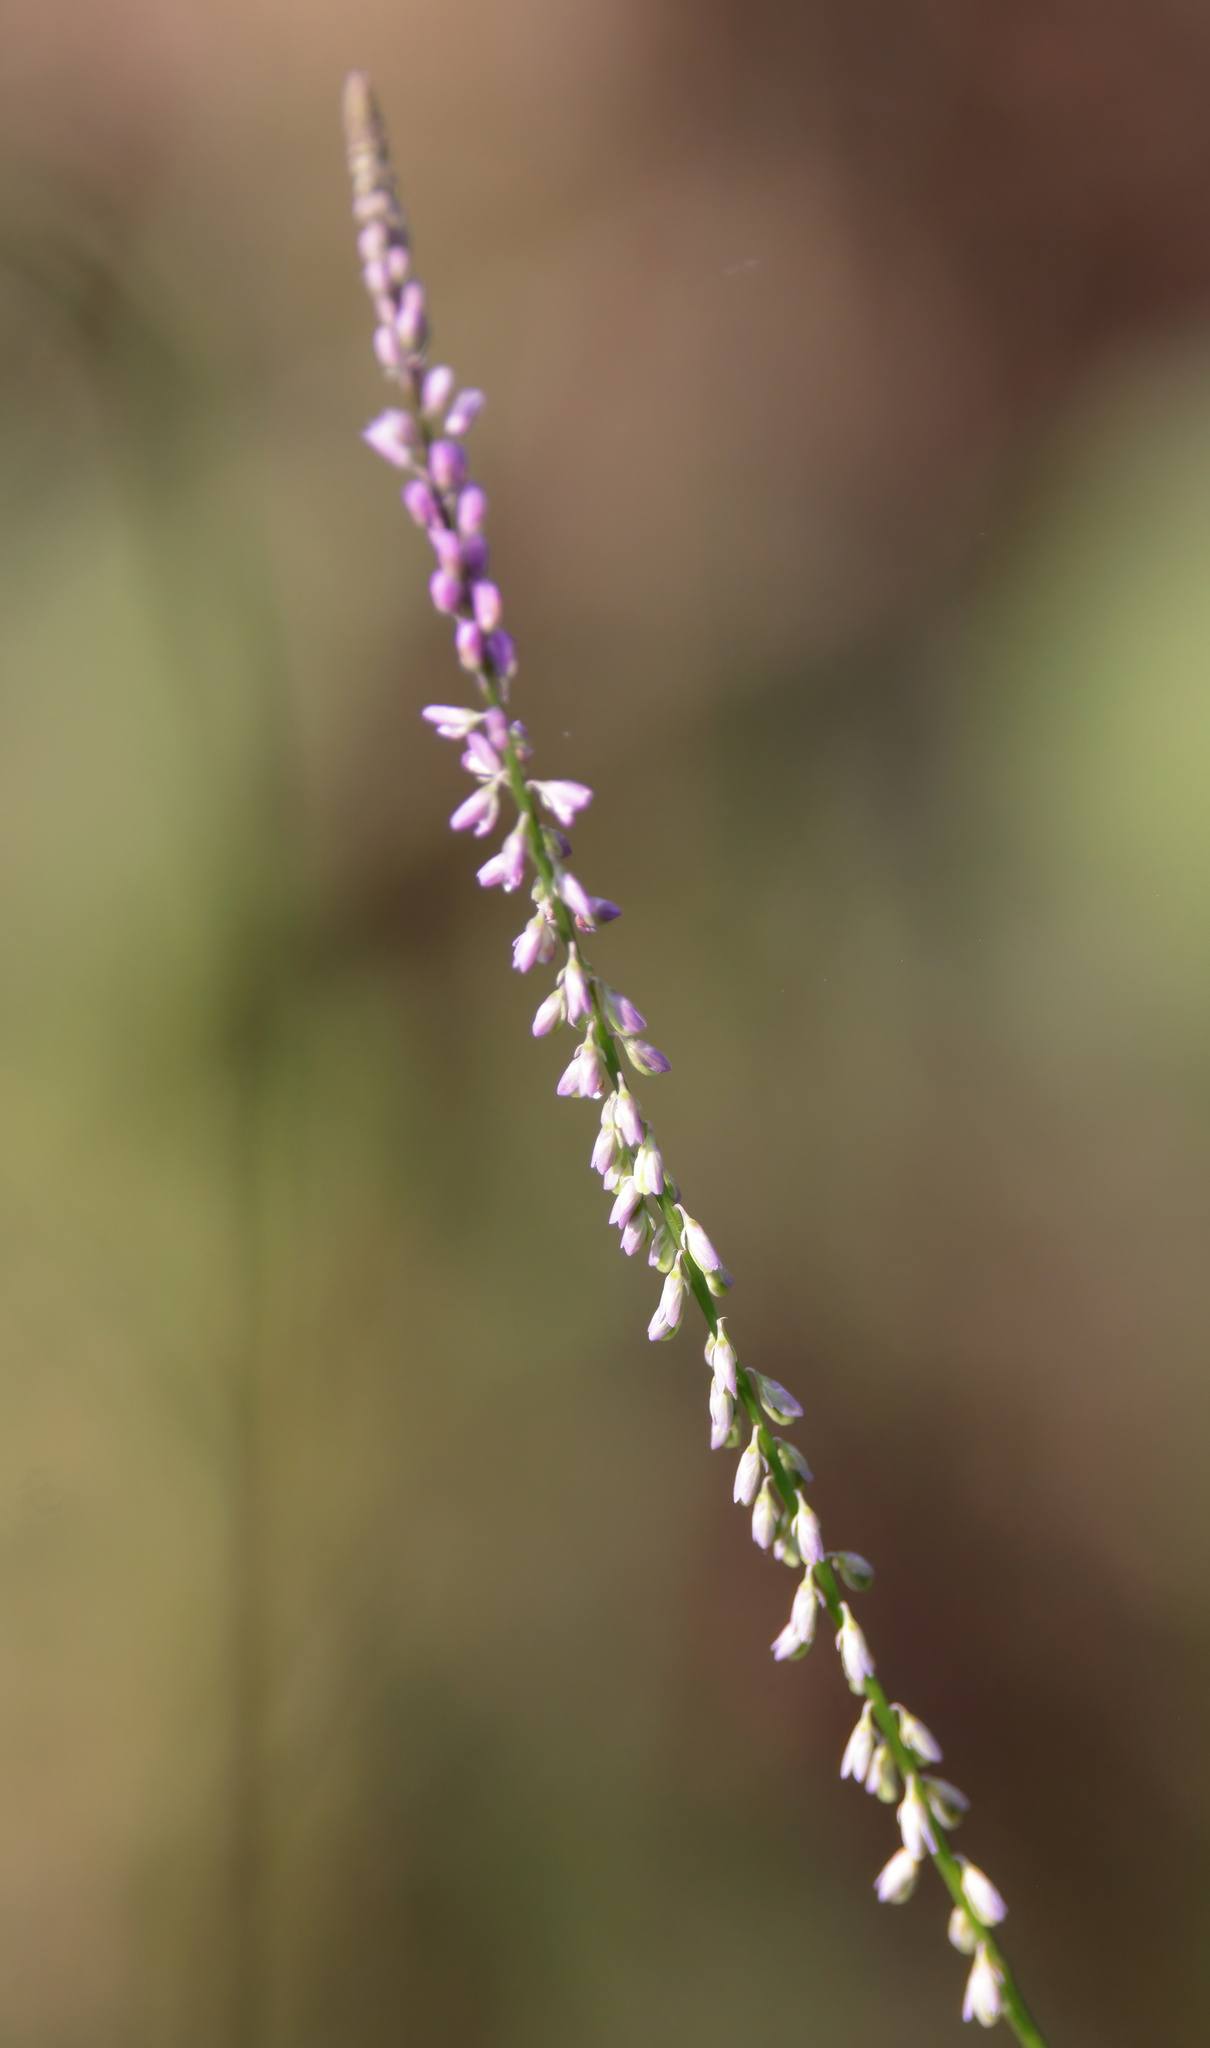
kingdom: Plantae
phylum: Tracheophyta
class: Magnoliopsida
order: Fabales
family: Polygalaceae
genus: Polygala
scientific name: Polygala tenella
